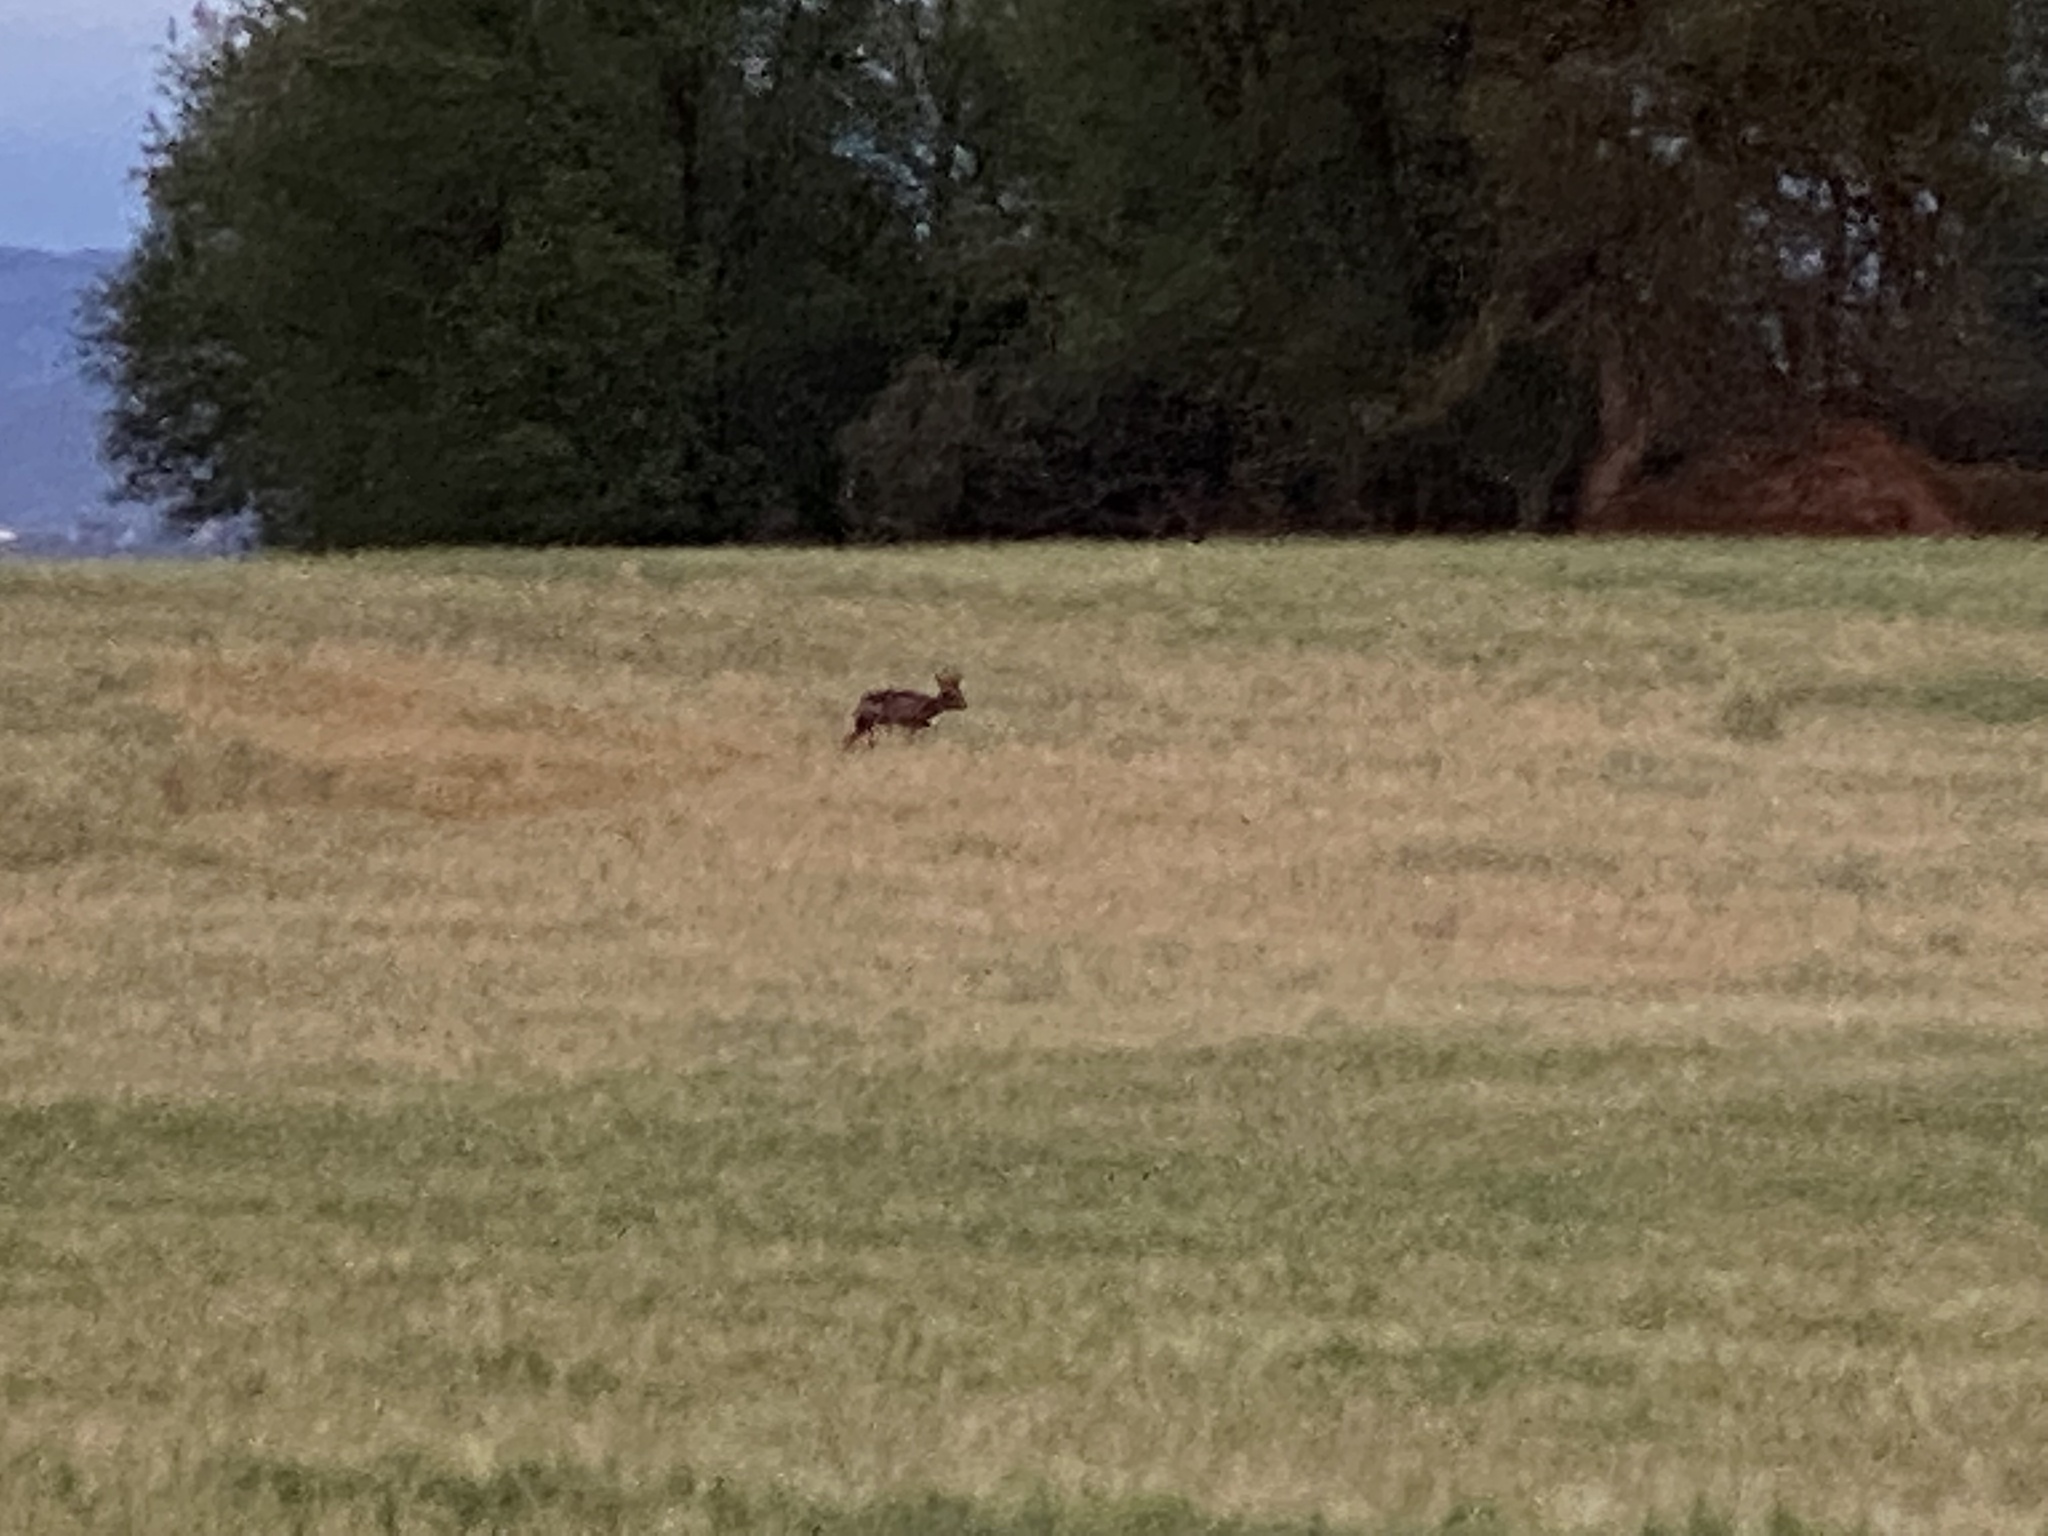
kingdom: Animalia
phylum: Chordata
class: Mammalia
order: Artiodactyla
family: Cervidae
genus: Capreolus
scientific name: Capreolus capreolus
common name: Western roe deer
